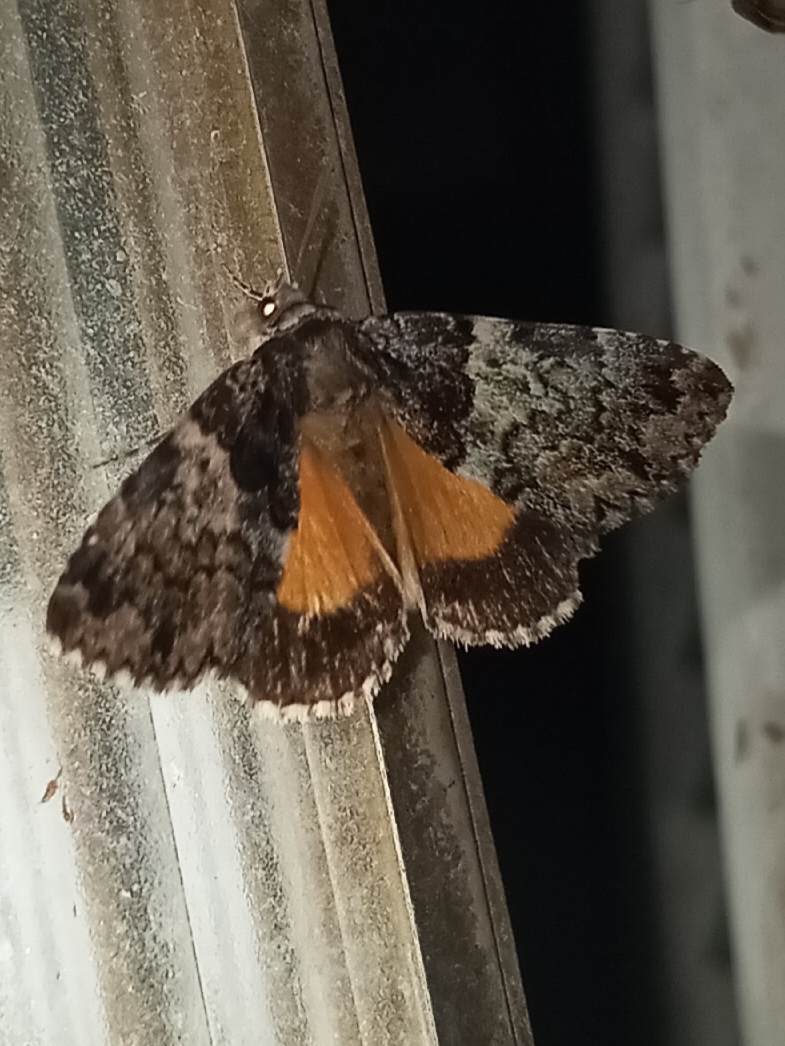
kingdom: Animalia
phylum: Arthropoda
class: Insecta
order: Lepidoptera
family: Erebidae
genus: Allotria
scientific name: Allotria elonympha
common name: False underwing
